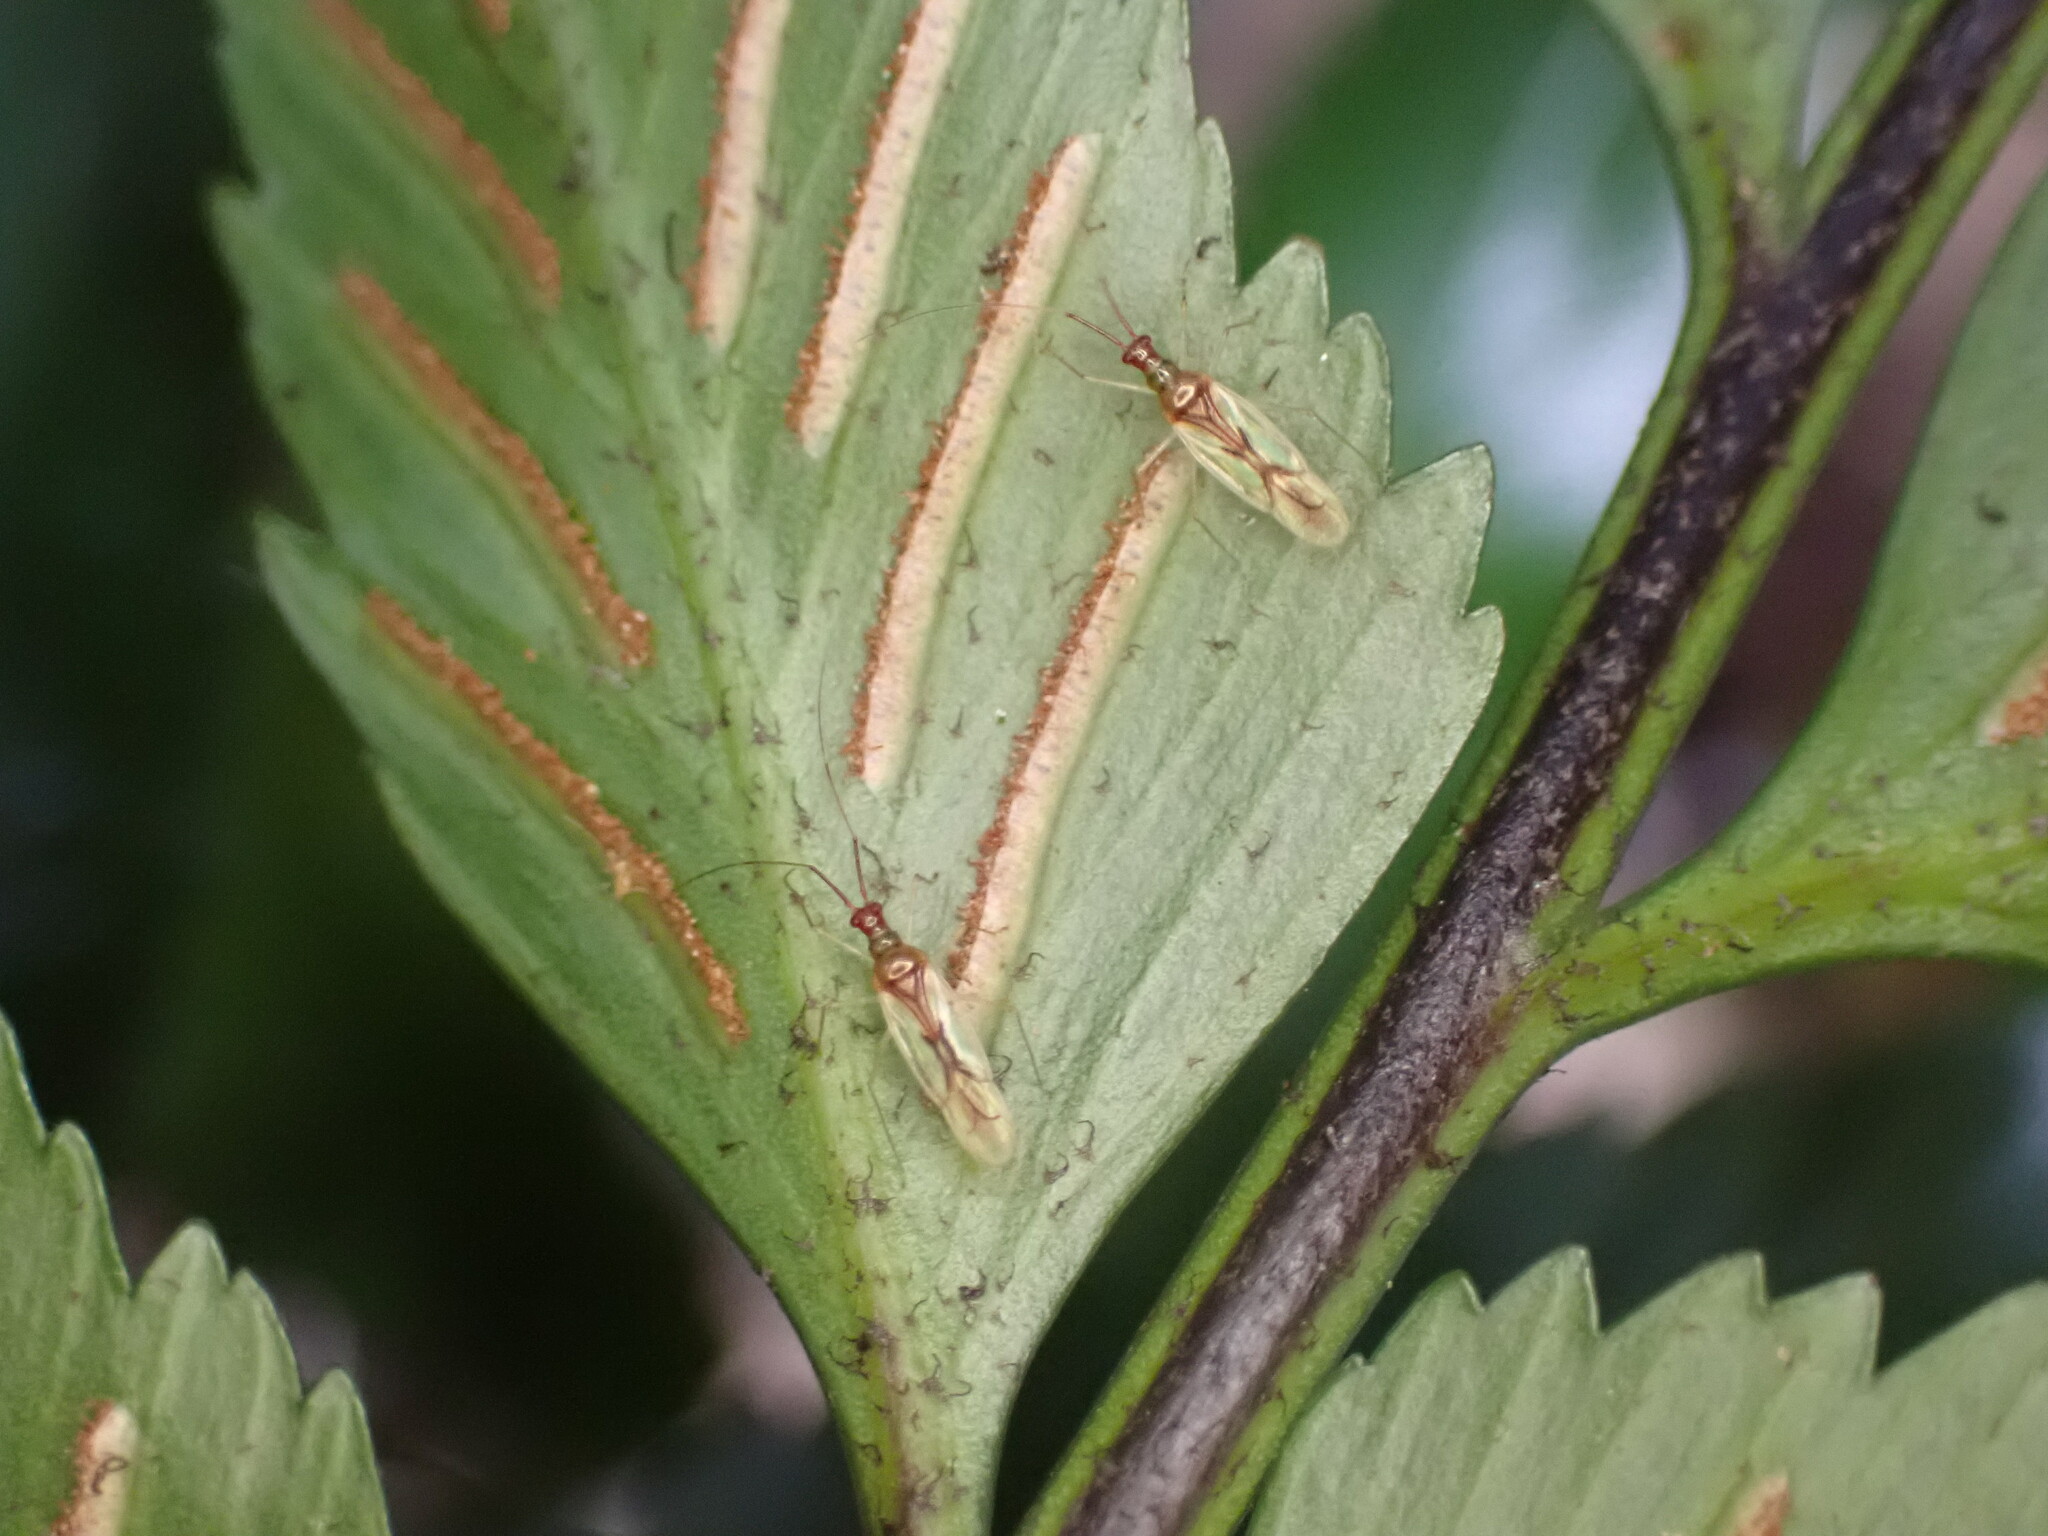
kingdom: Animalia
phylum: Arthropoda
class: Insecta
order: Hemiptera
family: Miridae
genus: Felisacus
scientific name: Felisacus
